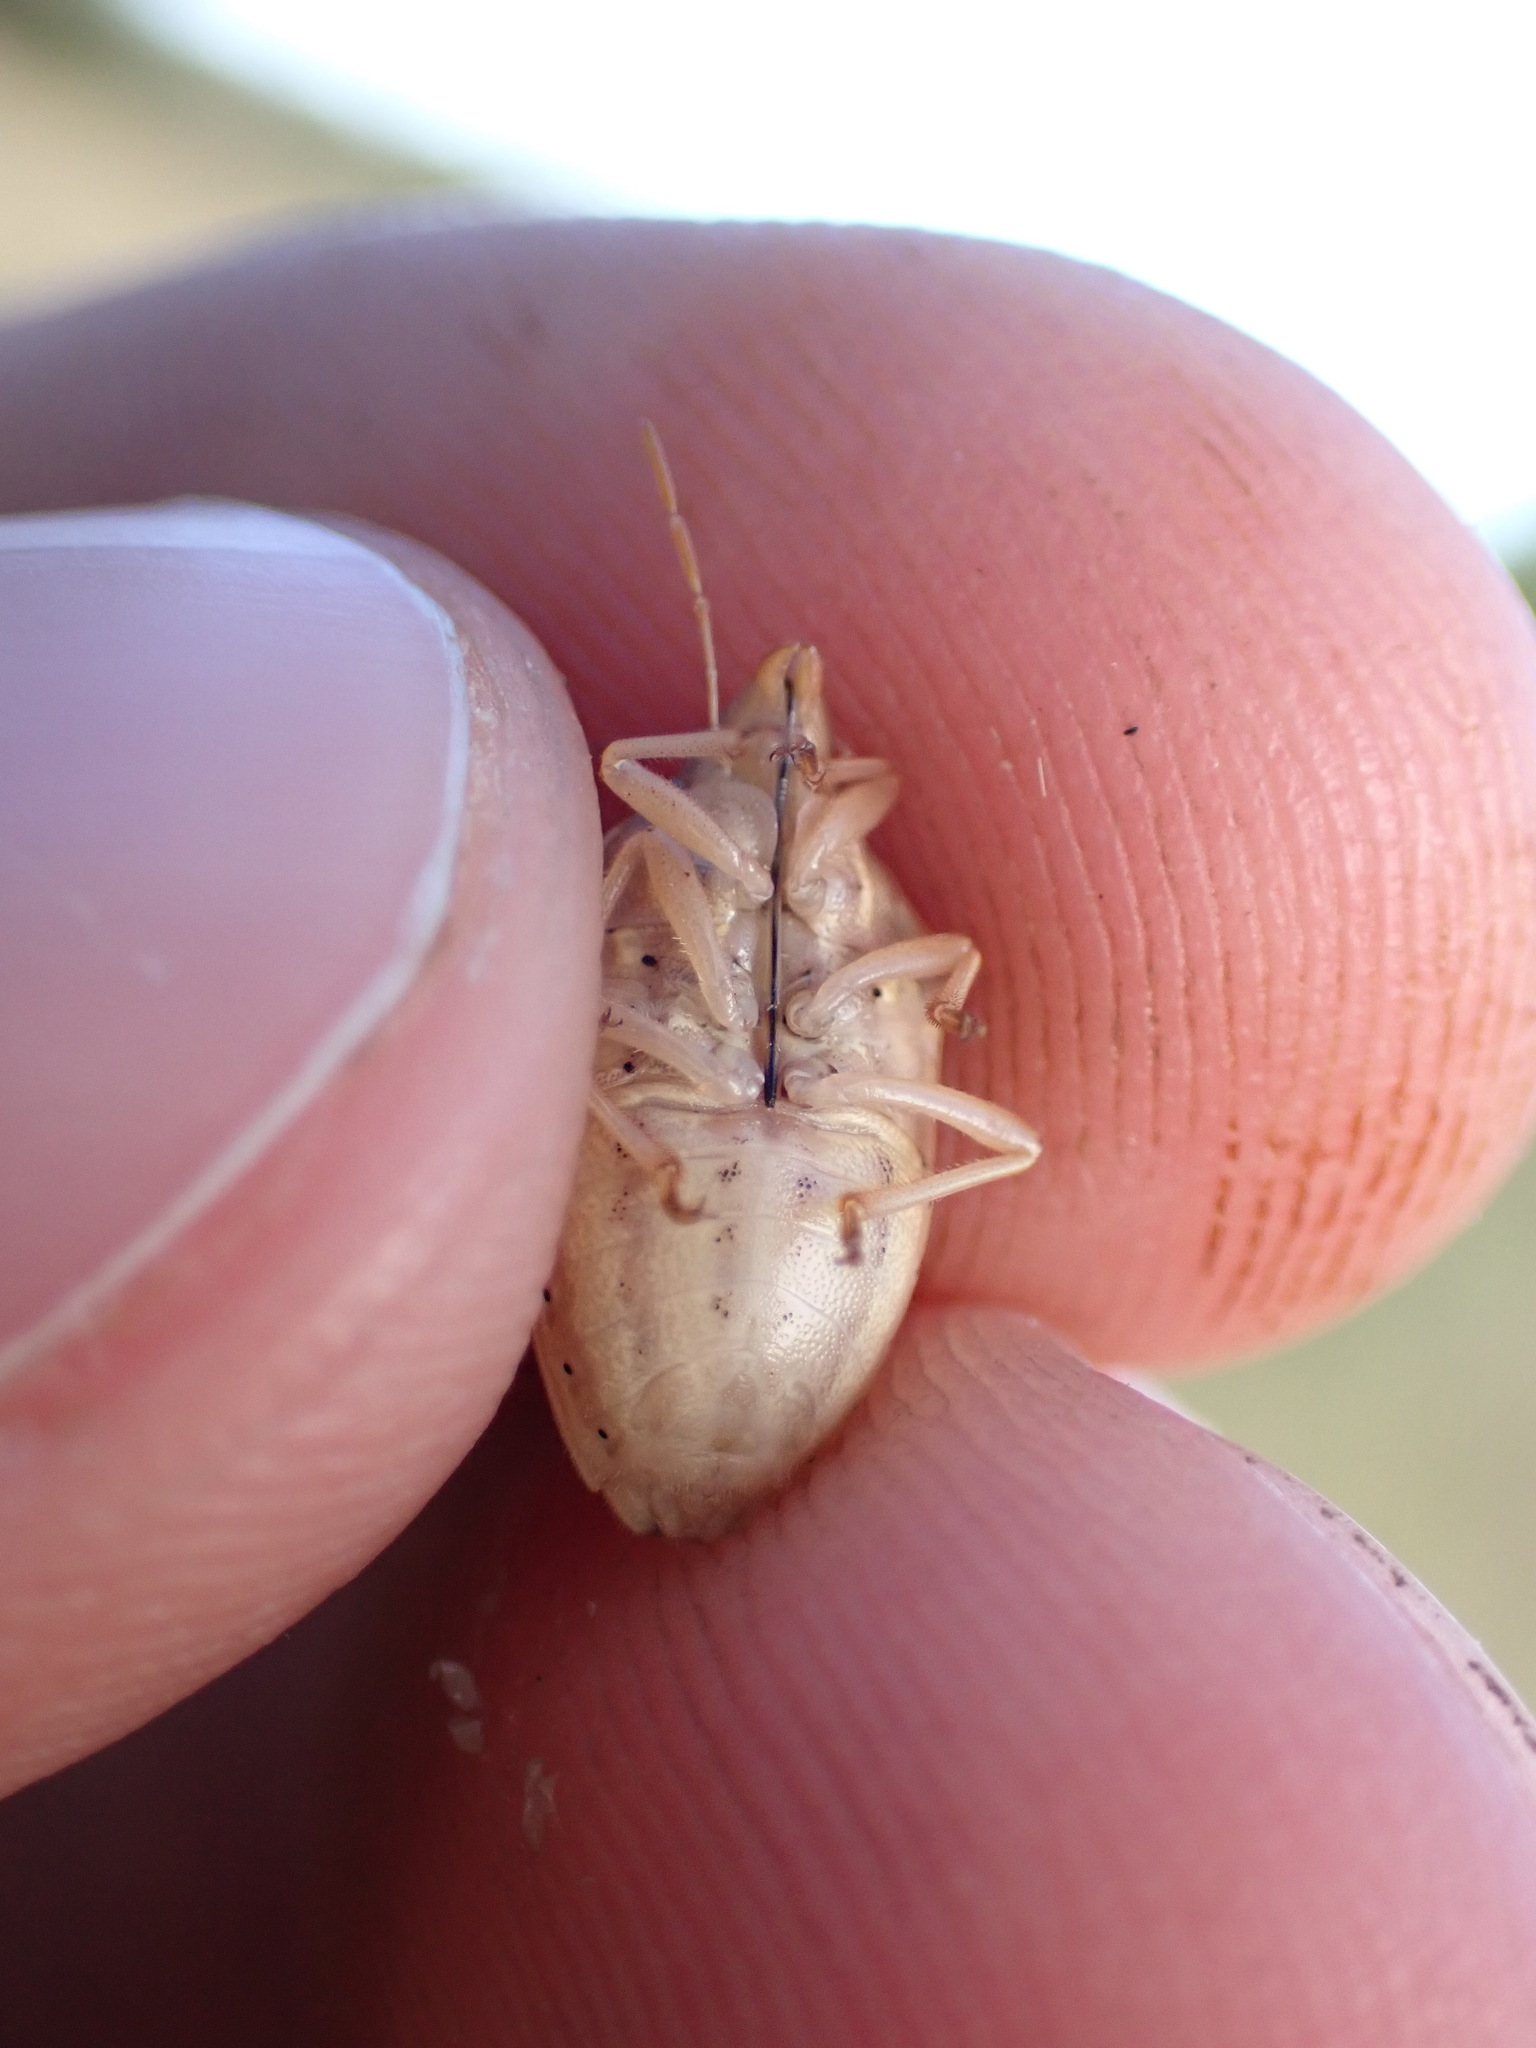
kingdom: Animalia
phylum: Arthropoda
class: Insecta
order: Hemiptera
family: Pentatomidae
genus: Aelia
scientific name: Aelia rostrata
